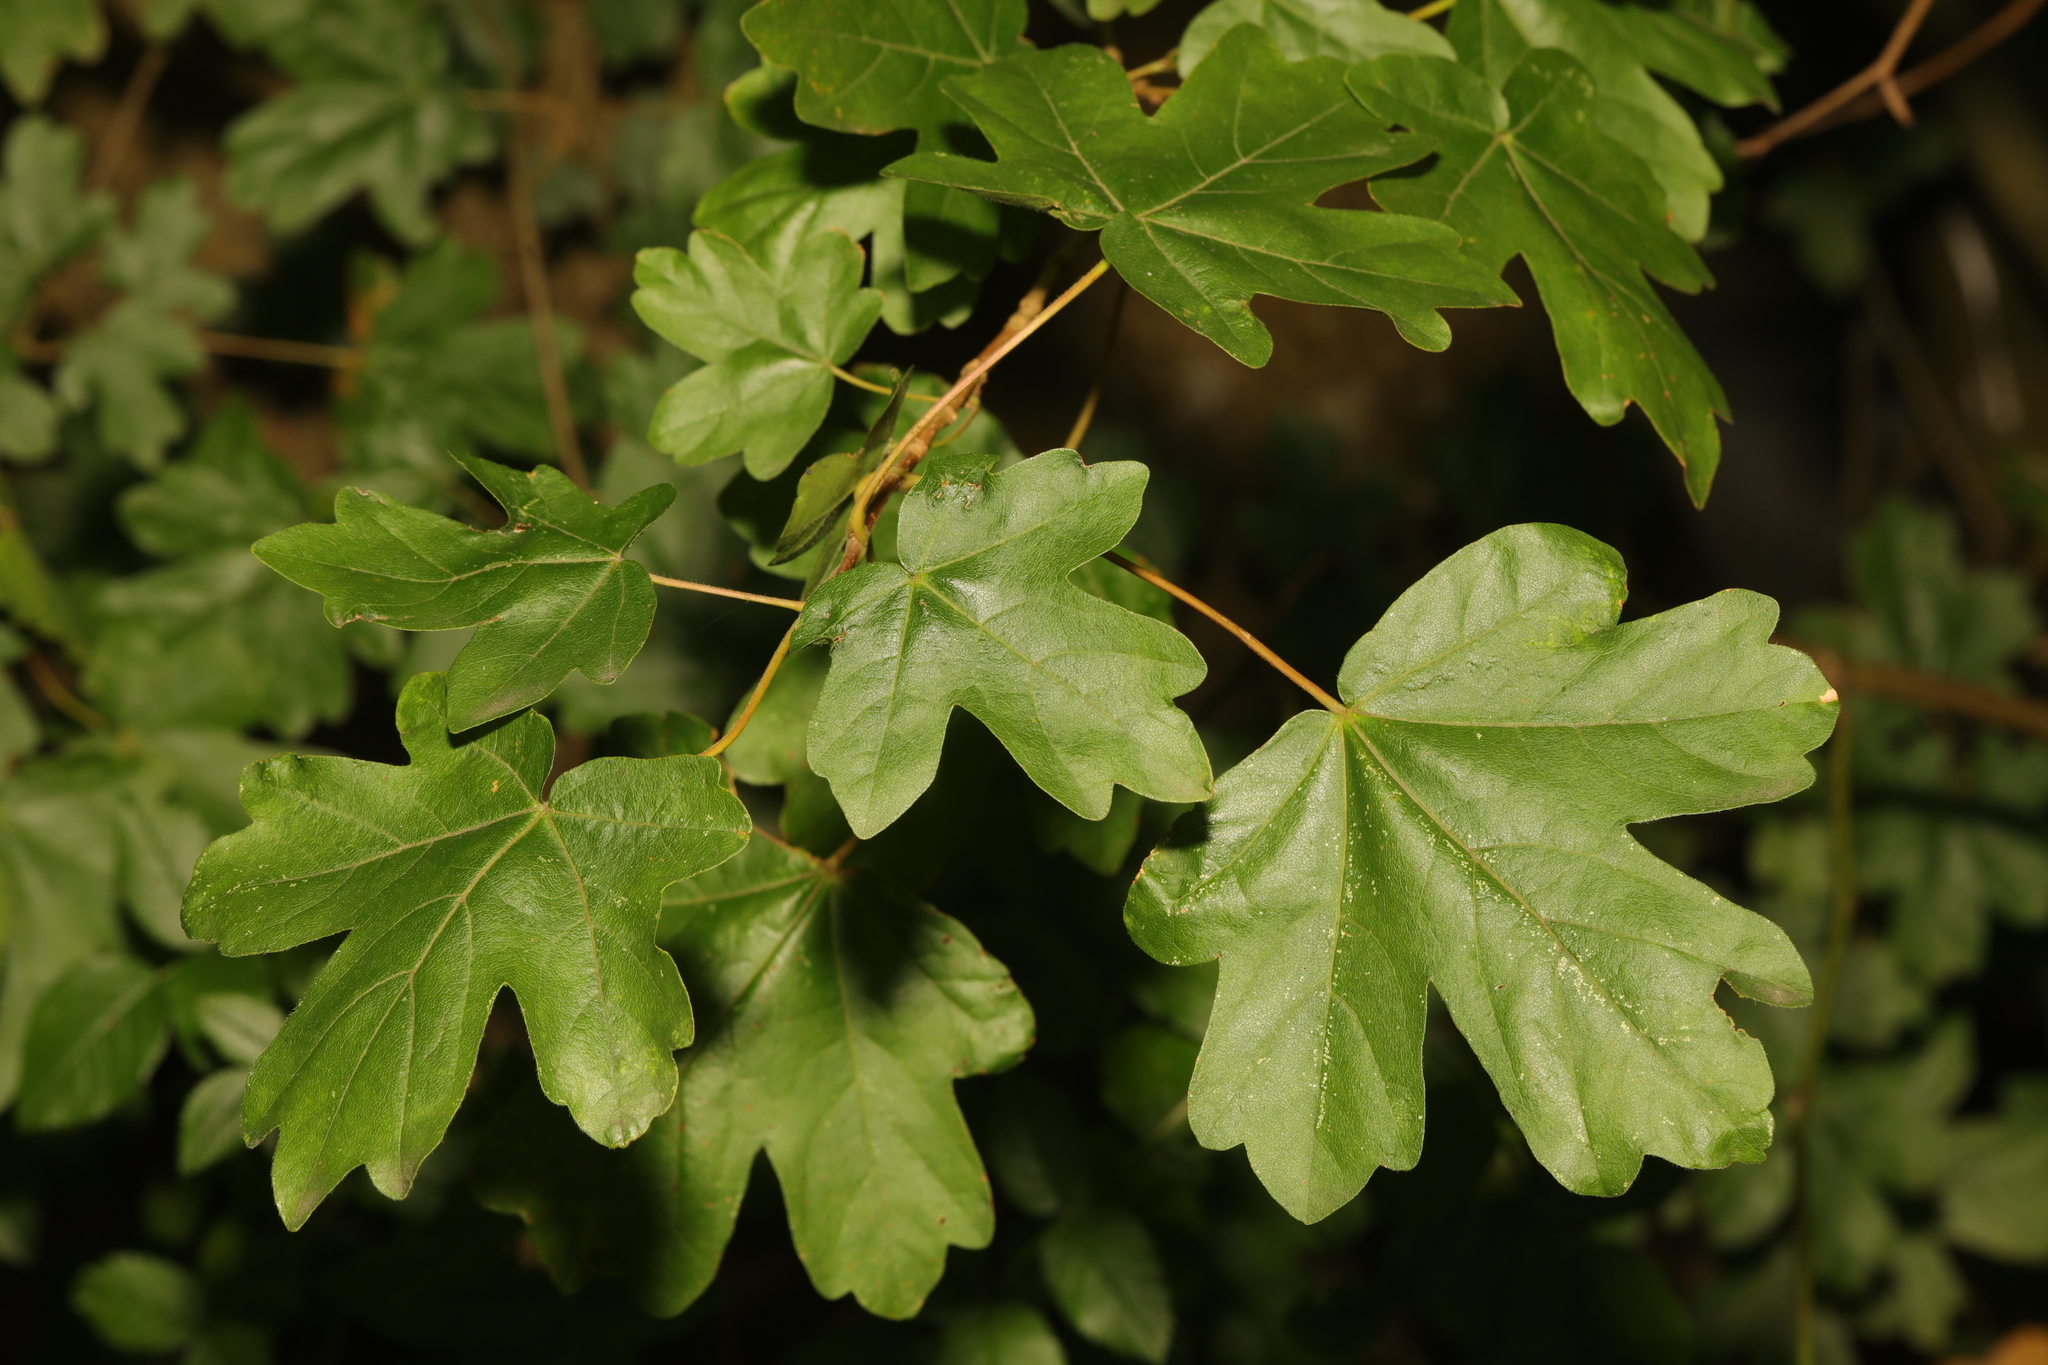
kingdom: Plantae
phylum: Tracheophyta
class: Magnoliopsida
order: Sapindales
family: Sapindaceae
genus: Acer
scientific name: Acer campestre
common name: Field maple
